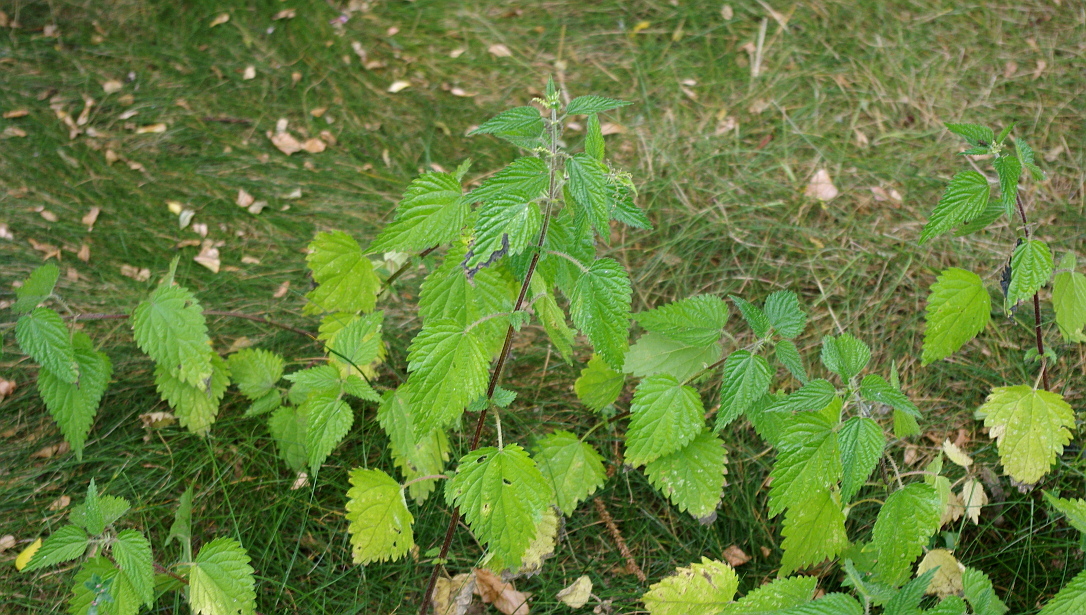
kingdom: Plantae
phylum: Tracheophyta
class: Magnoliopsida
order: Rosales
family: Urticaceae
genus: Urtica
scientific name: Urtica dioica
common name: Common nettle
